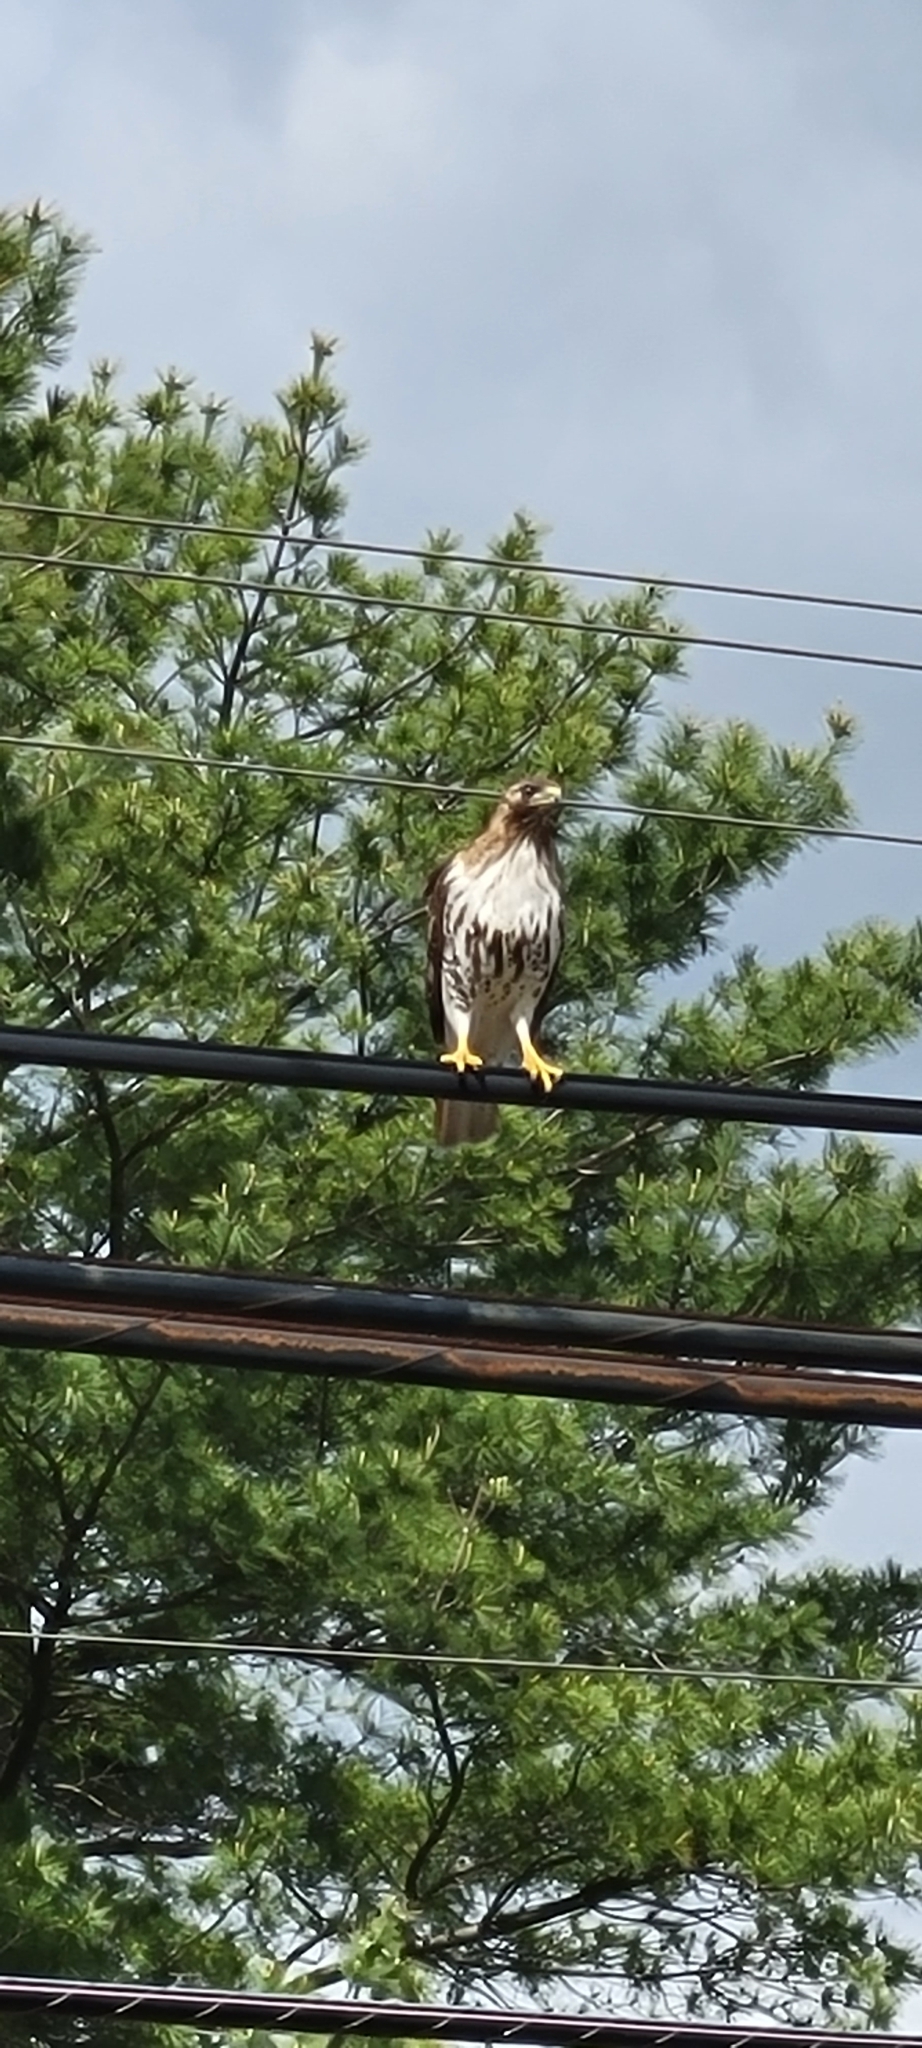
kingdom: Animalia
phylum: Chordata
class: Aves
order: Accipitriformes
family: Accipitridae
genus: Buteo
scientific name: Buteo jamaicensis
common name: Red-tailed hawk
